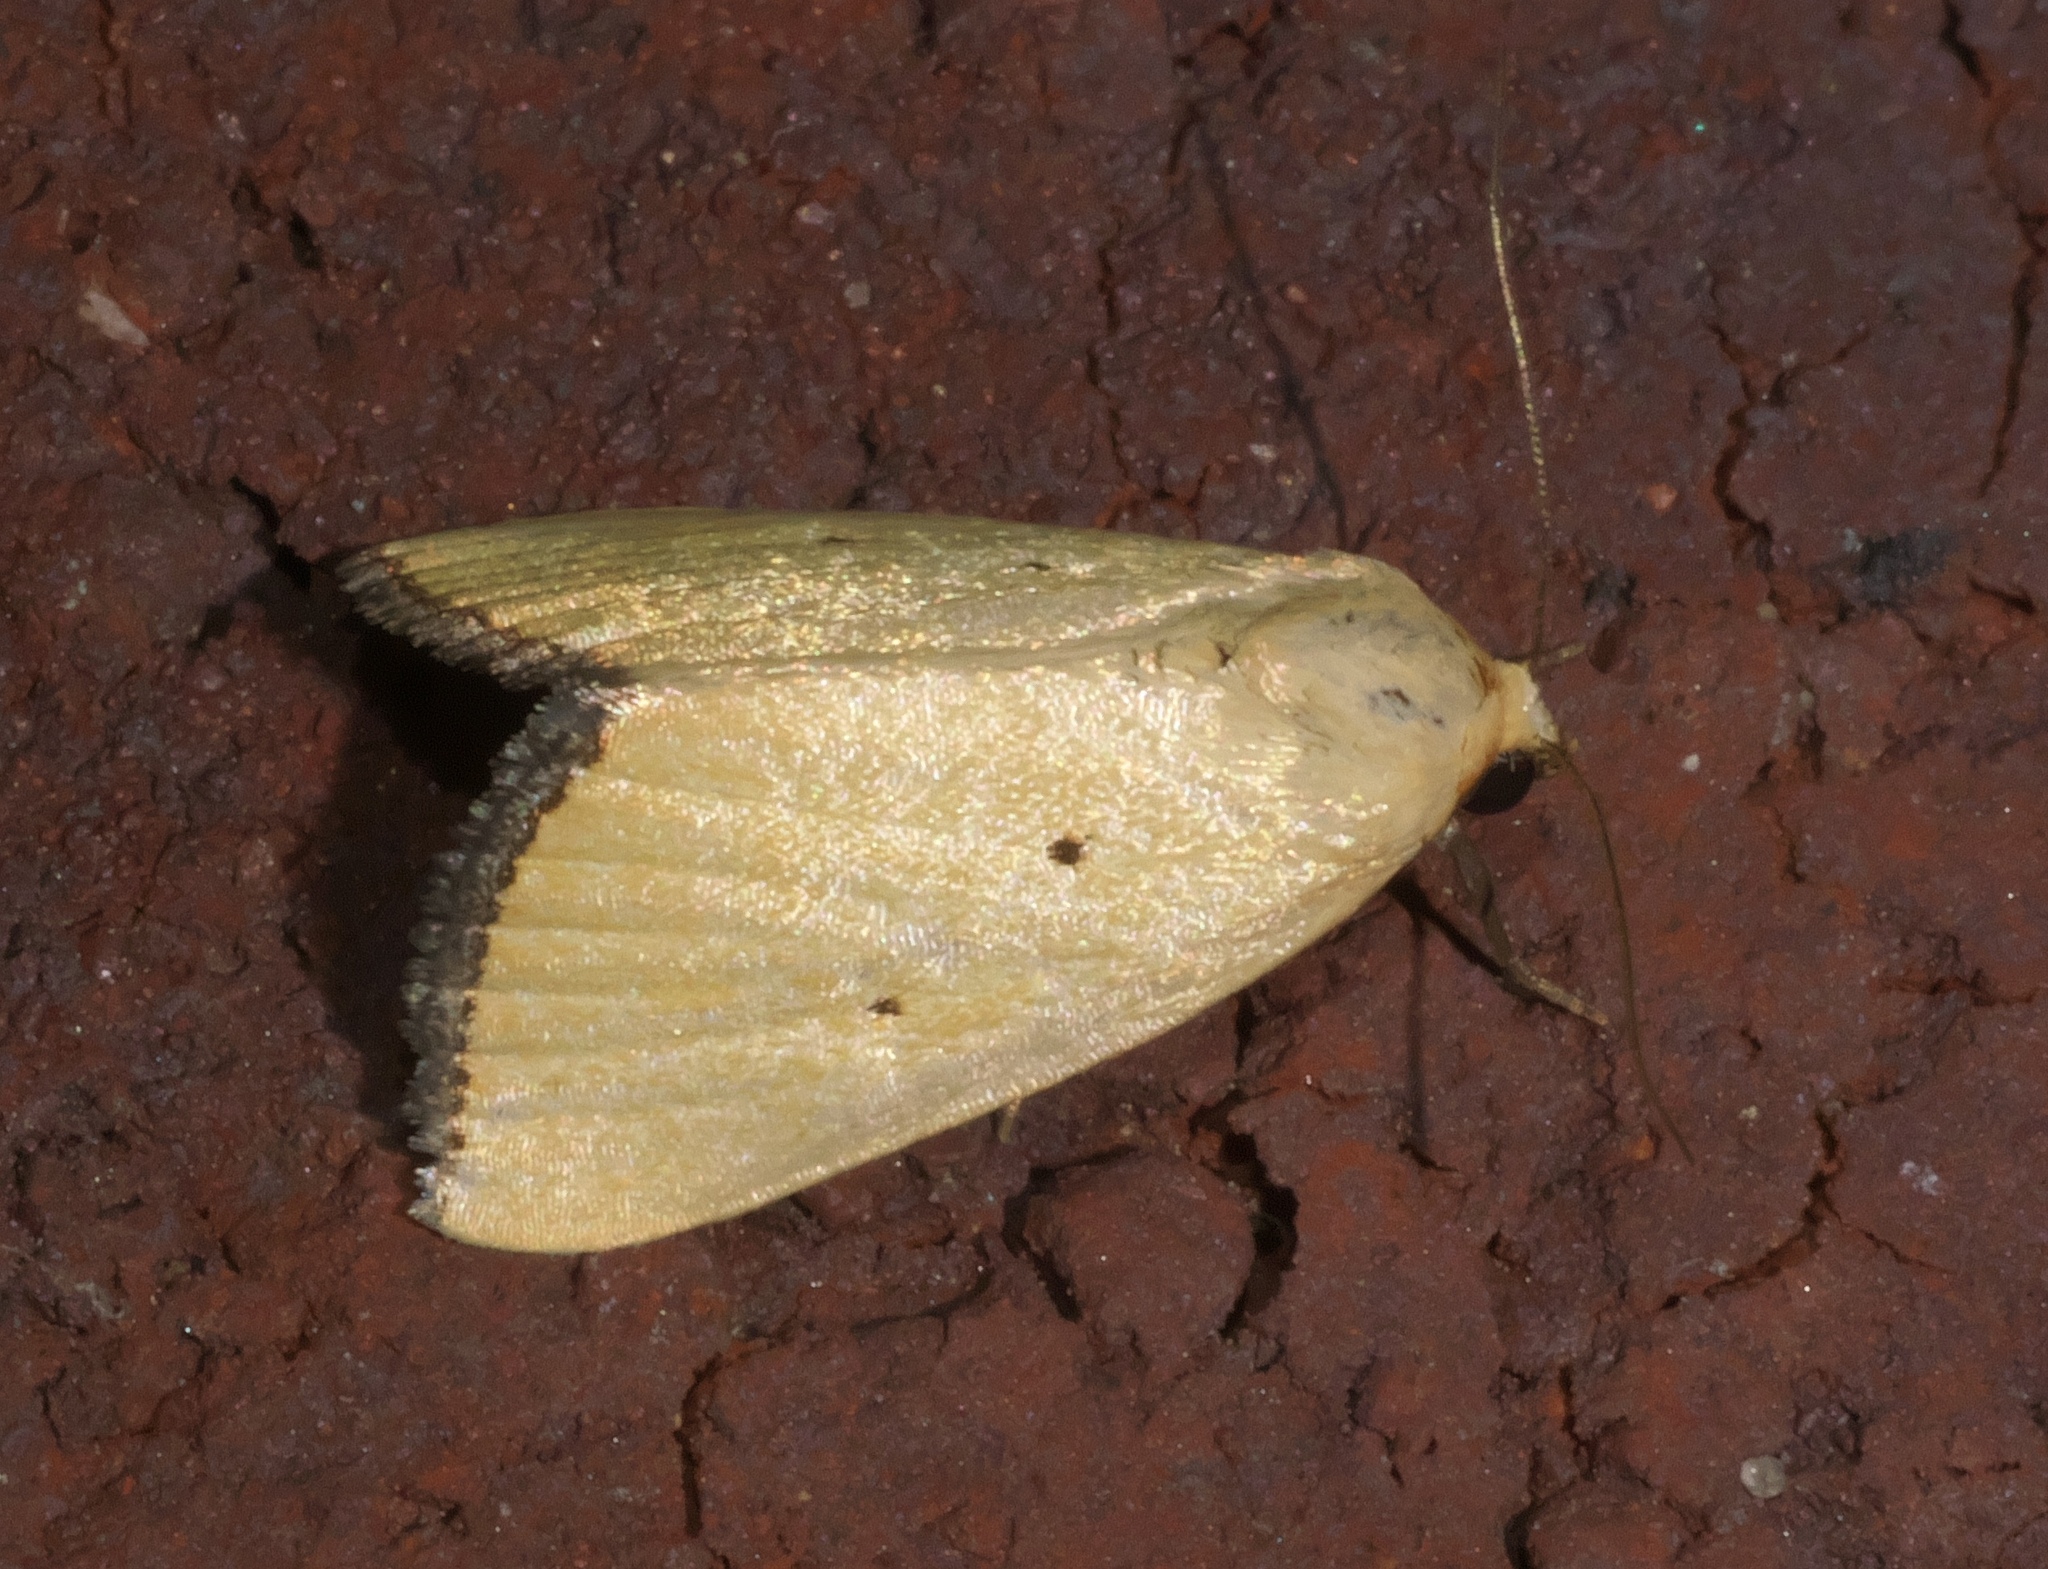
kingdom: Animalia
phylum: Arthropoda
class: Insecta
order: Lepidoptera
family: Noctuidae
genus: Marimatha
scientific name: Marimatha nigrofimbria
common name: Black-bordered lemon moth
